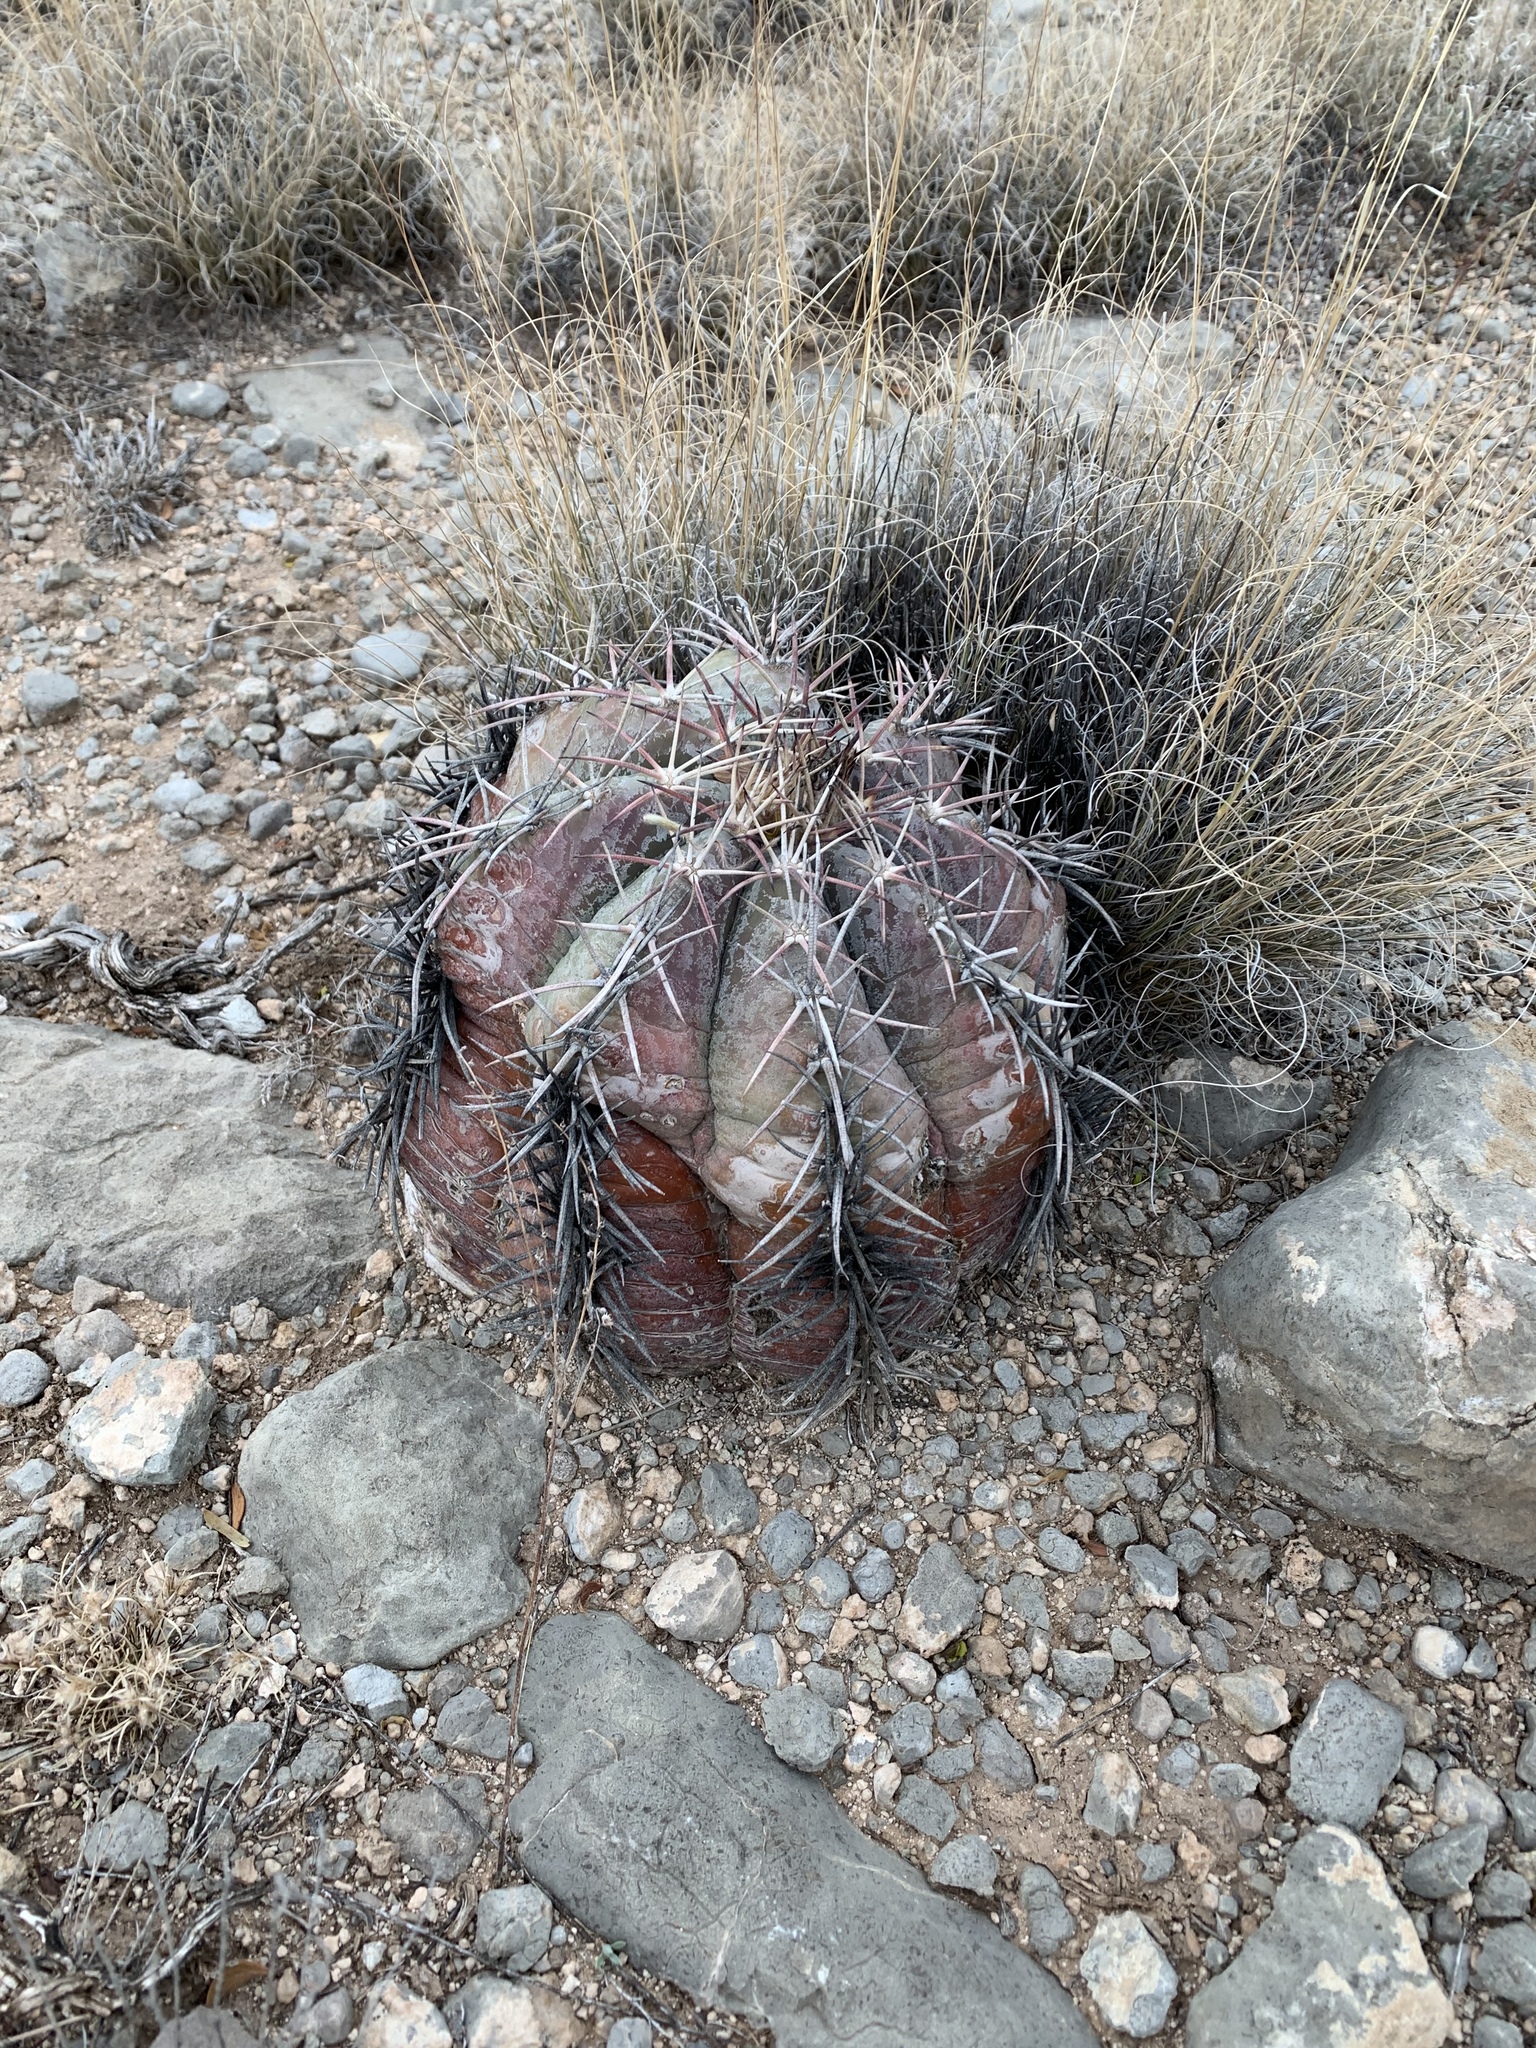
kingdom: Plantae
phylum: Tracheophyta
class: Magnoliopsida
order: Caryophyllales
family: Cactaceae
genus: Echinocactus
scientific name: Echinocactus horizonthalonius
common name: Devilshead
